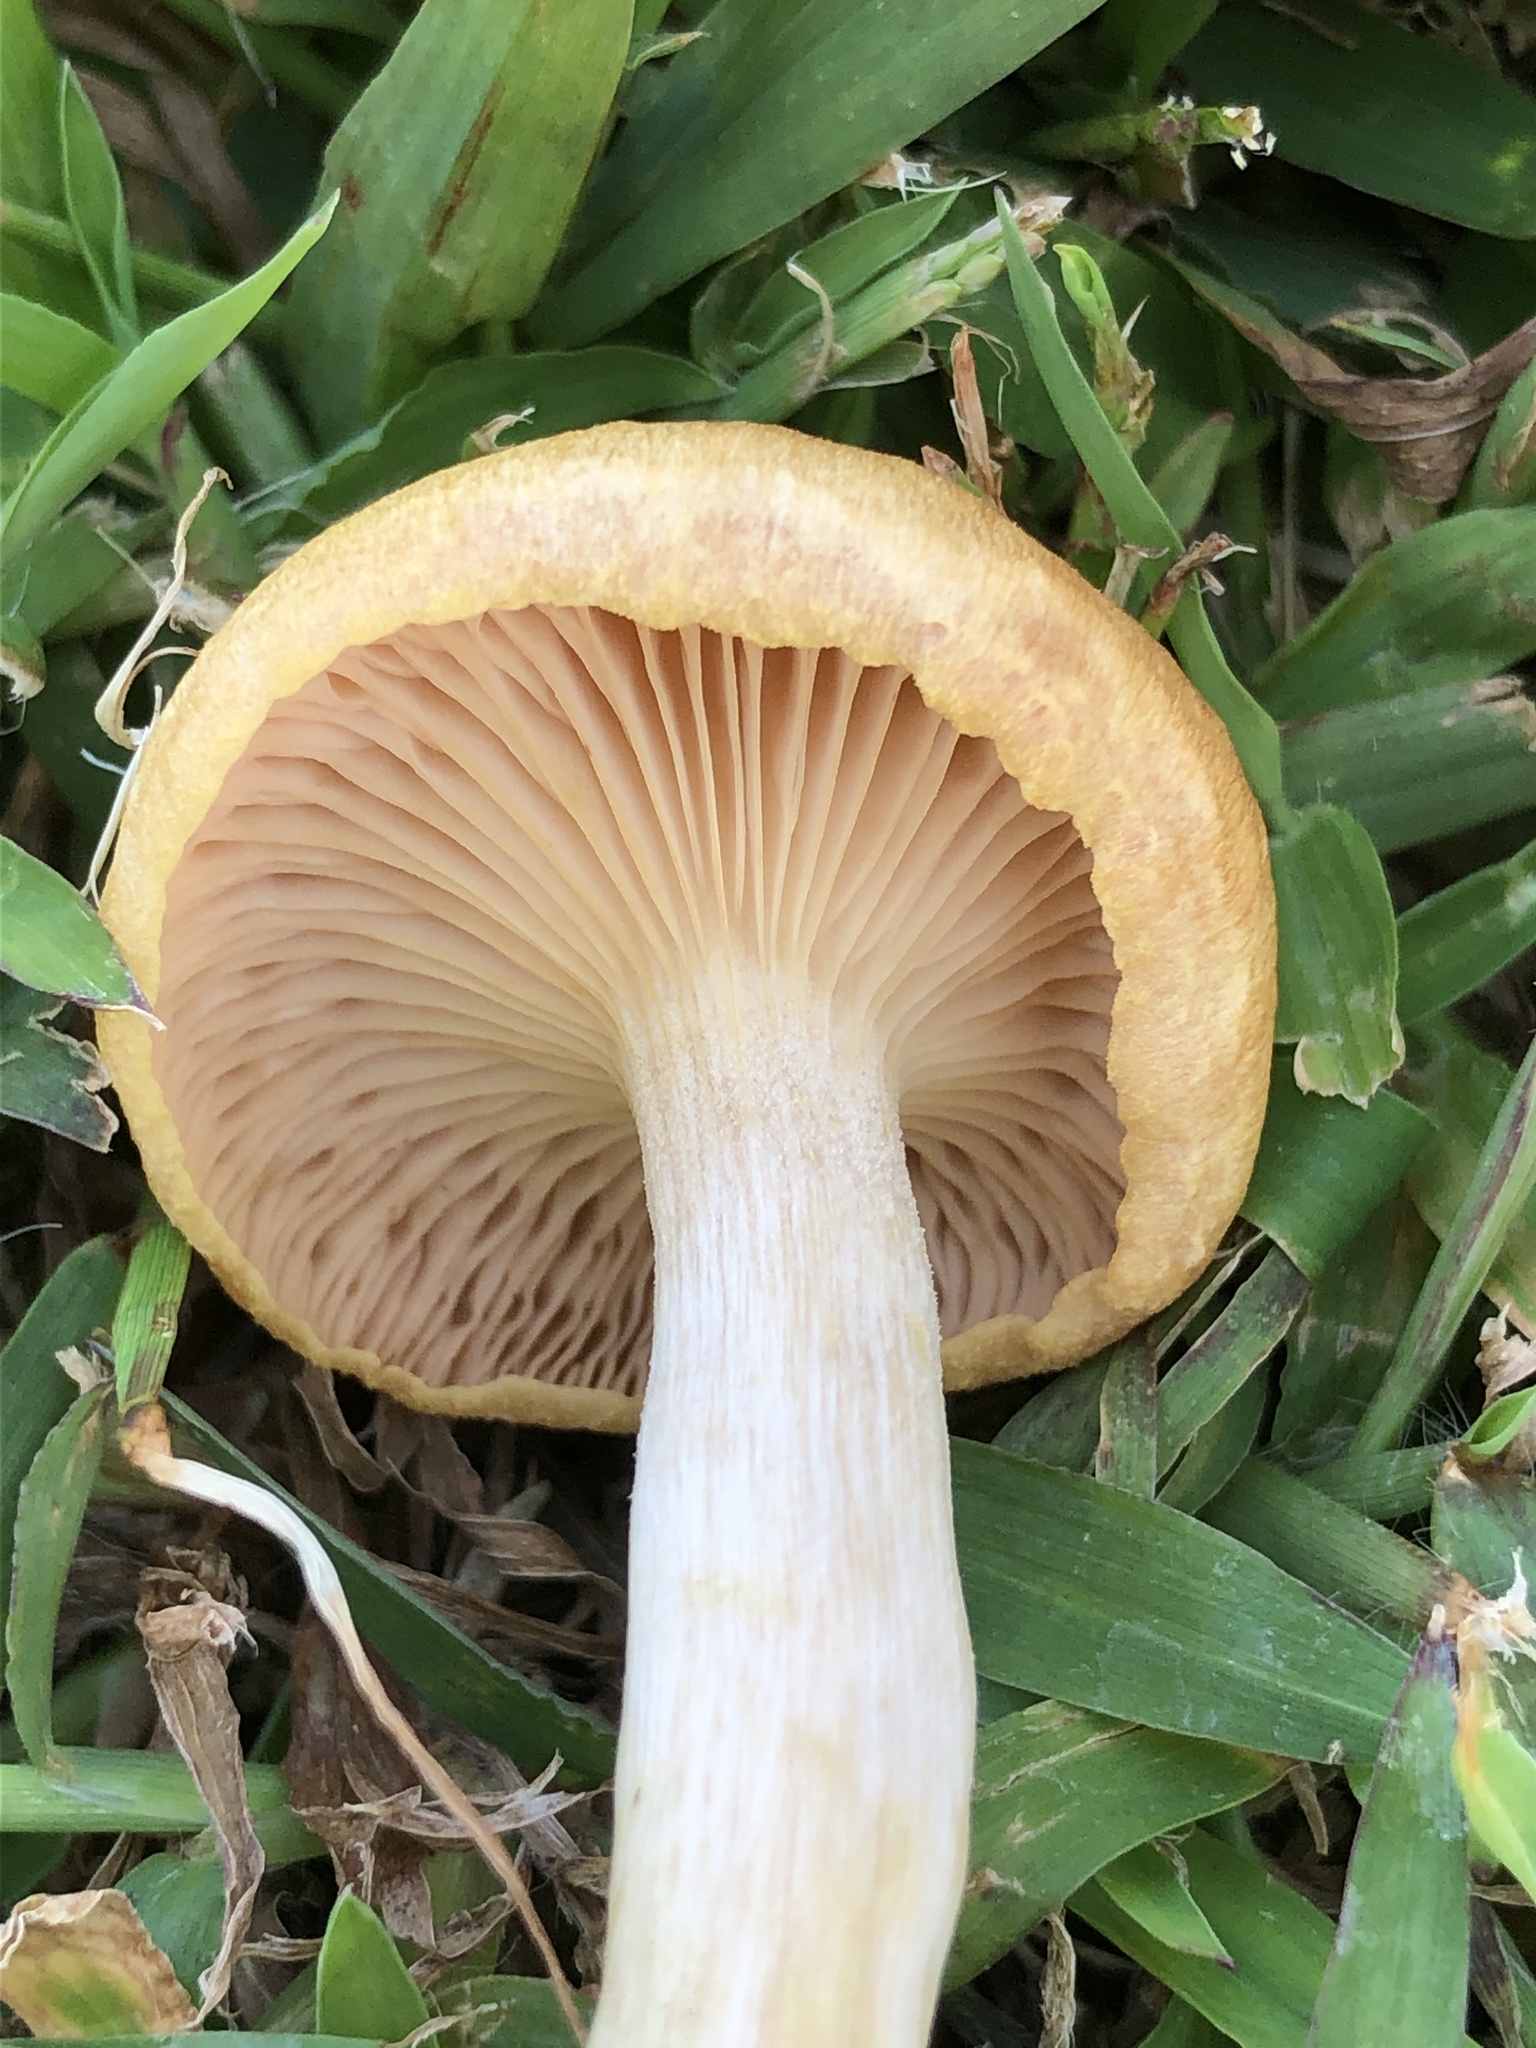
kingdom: Fungi
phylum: Basidiomycota
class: Agaricomycetes
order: Agaricales
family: Physalacriaceae
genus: Desarmillaria
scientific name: Desarmillaria caespitosa
